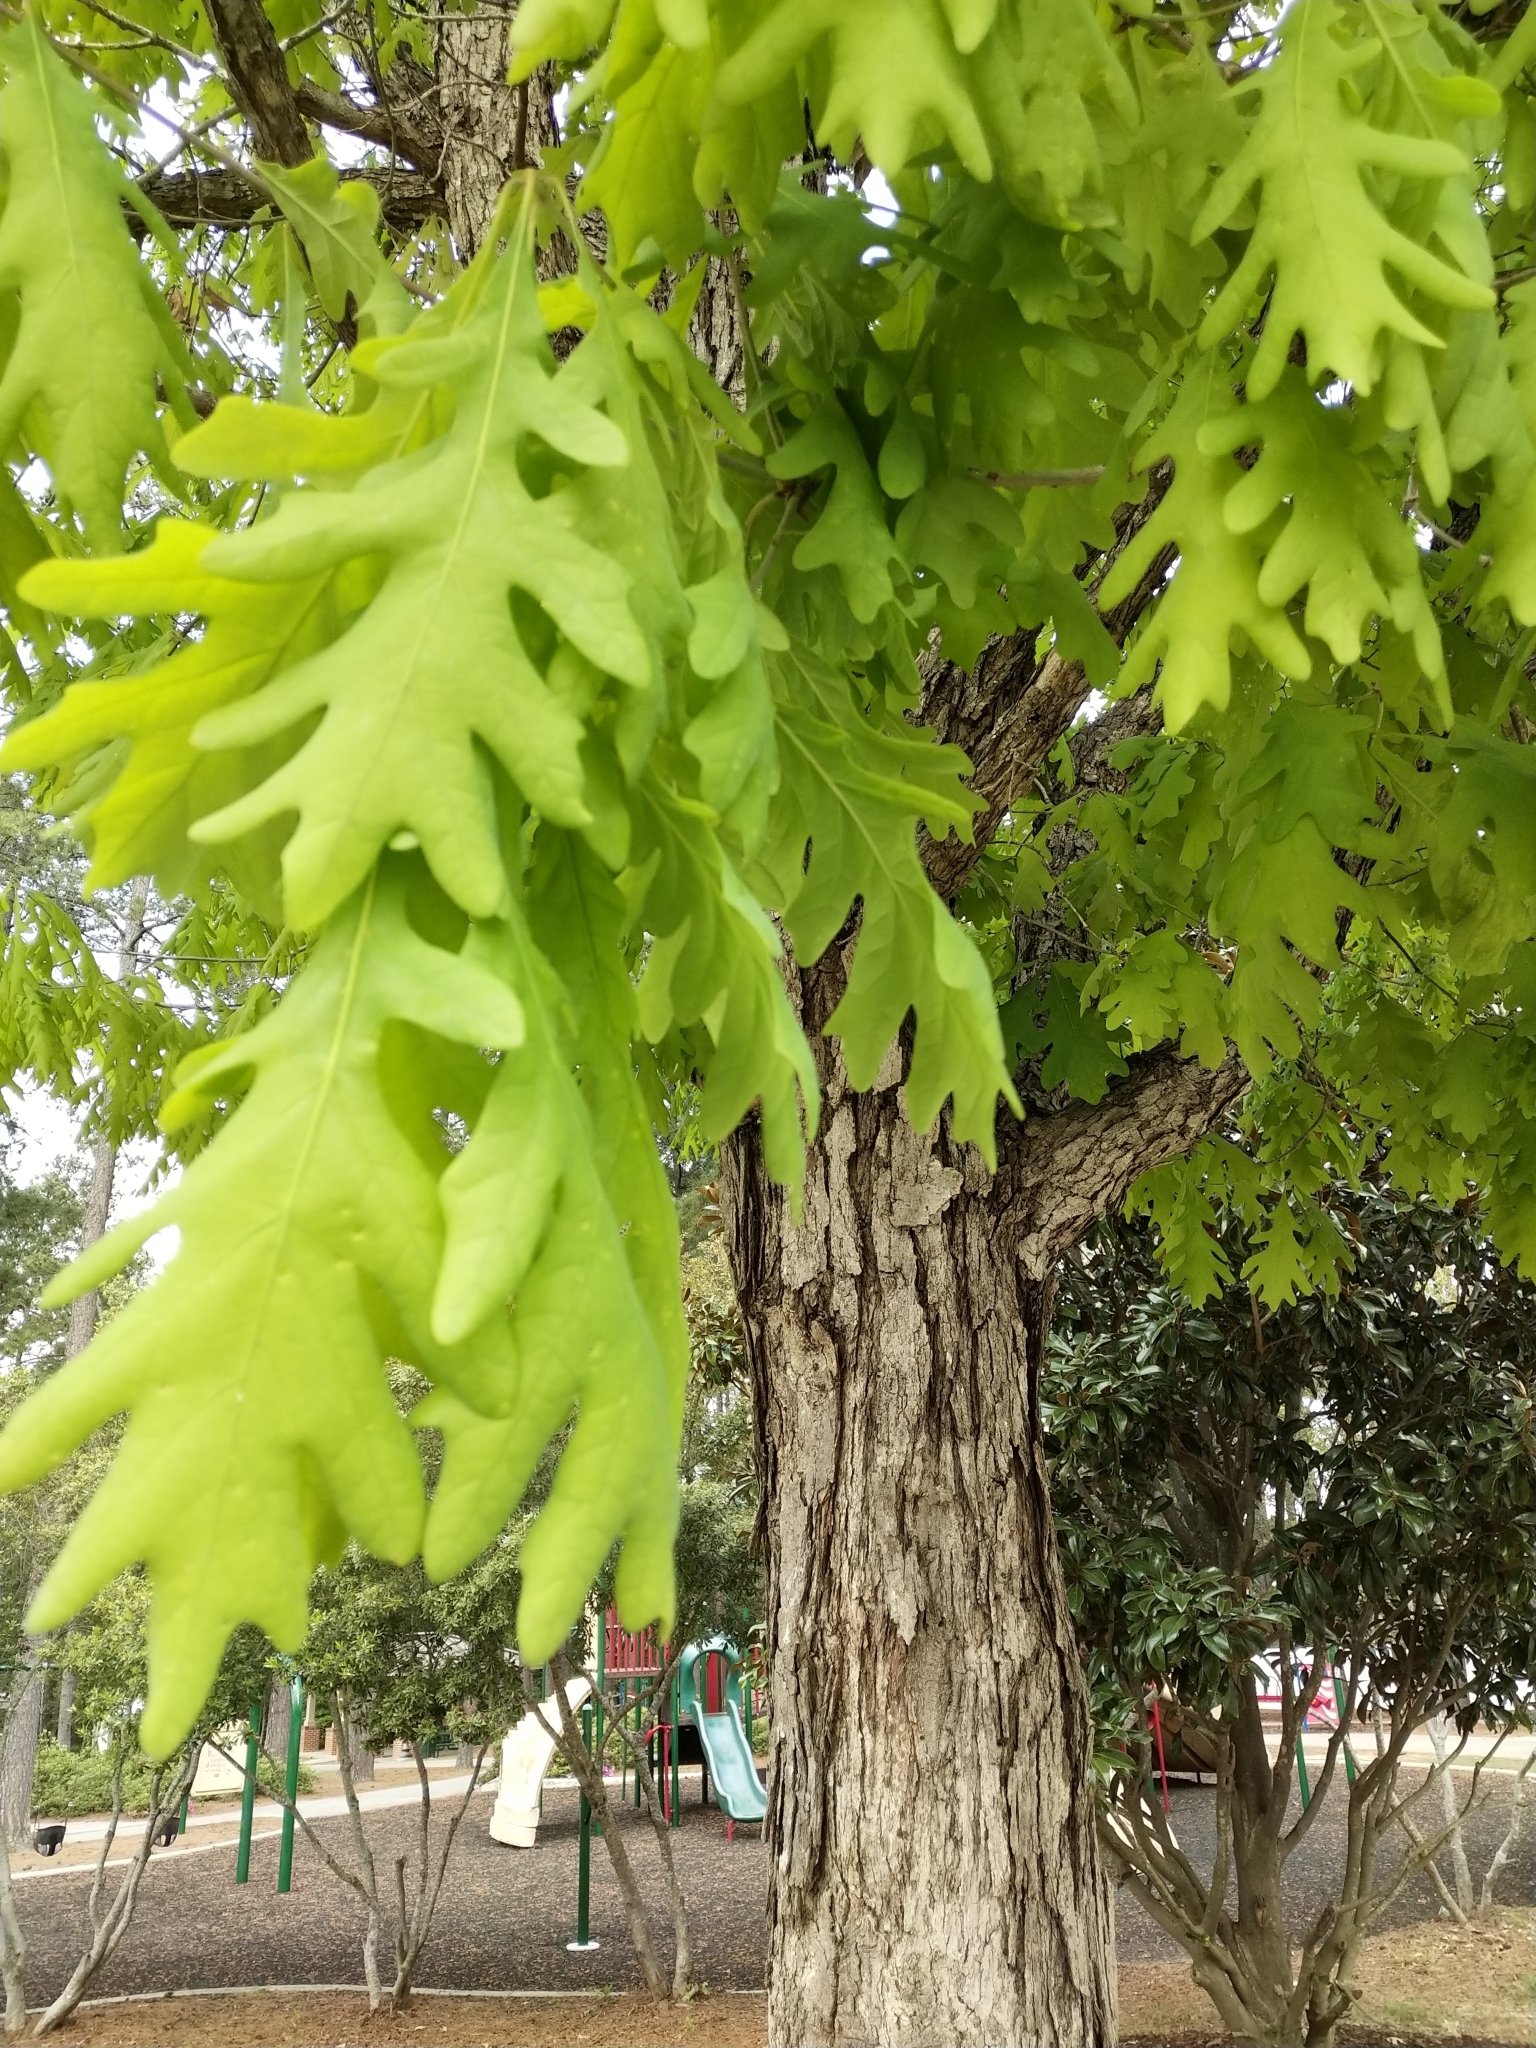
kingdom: Plantae
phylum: Tracheophyta
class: Magnoliopsida
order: Fagales
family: Fagaceae
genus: Quercus
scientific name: Quercus alba
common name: White oak
